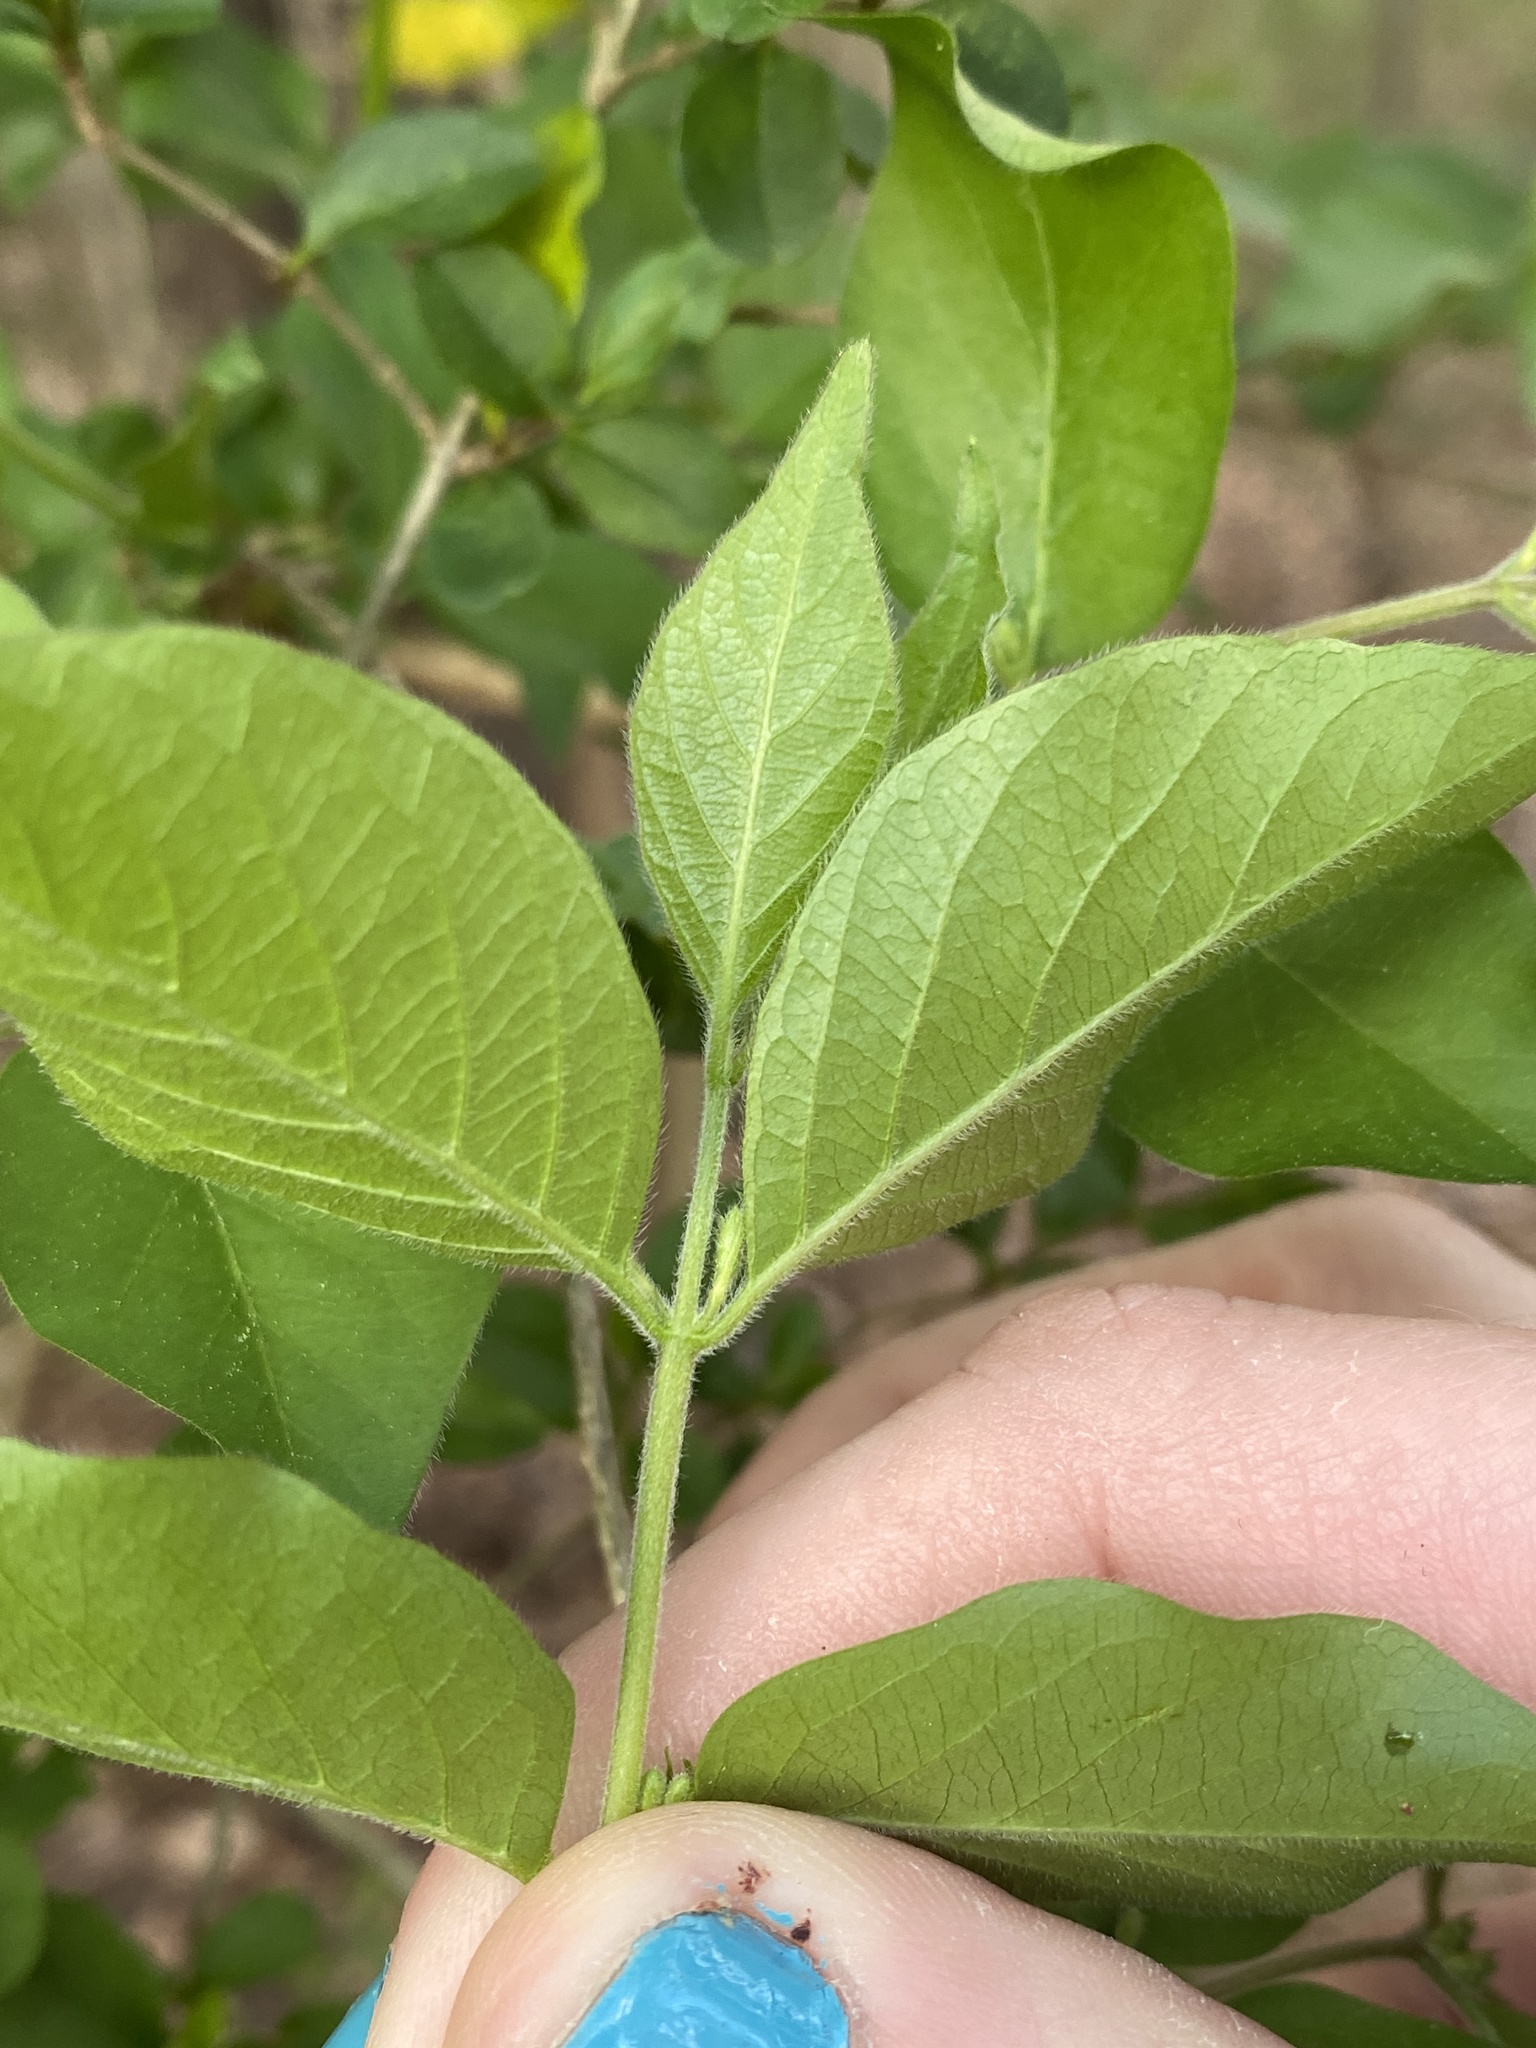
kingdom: Plantae
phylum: Tracheophyta
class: Magnoliopsida
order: Dipsacales
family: Caprifoliaceae
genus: Lonicera
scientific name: Lonicera maackii
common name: Amur honeysuckle
